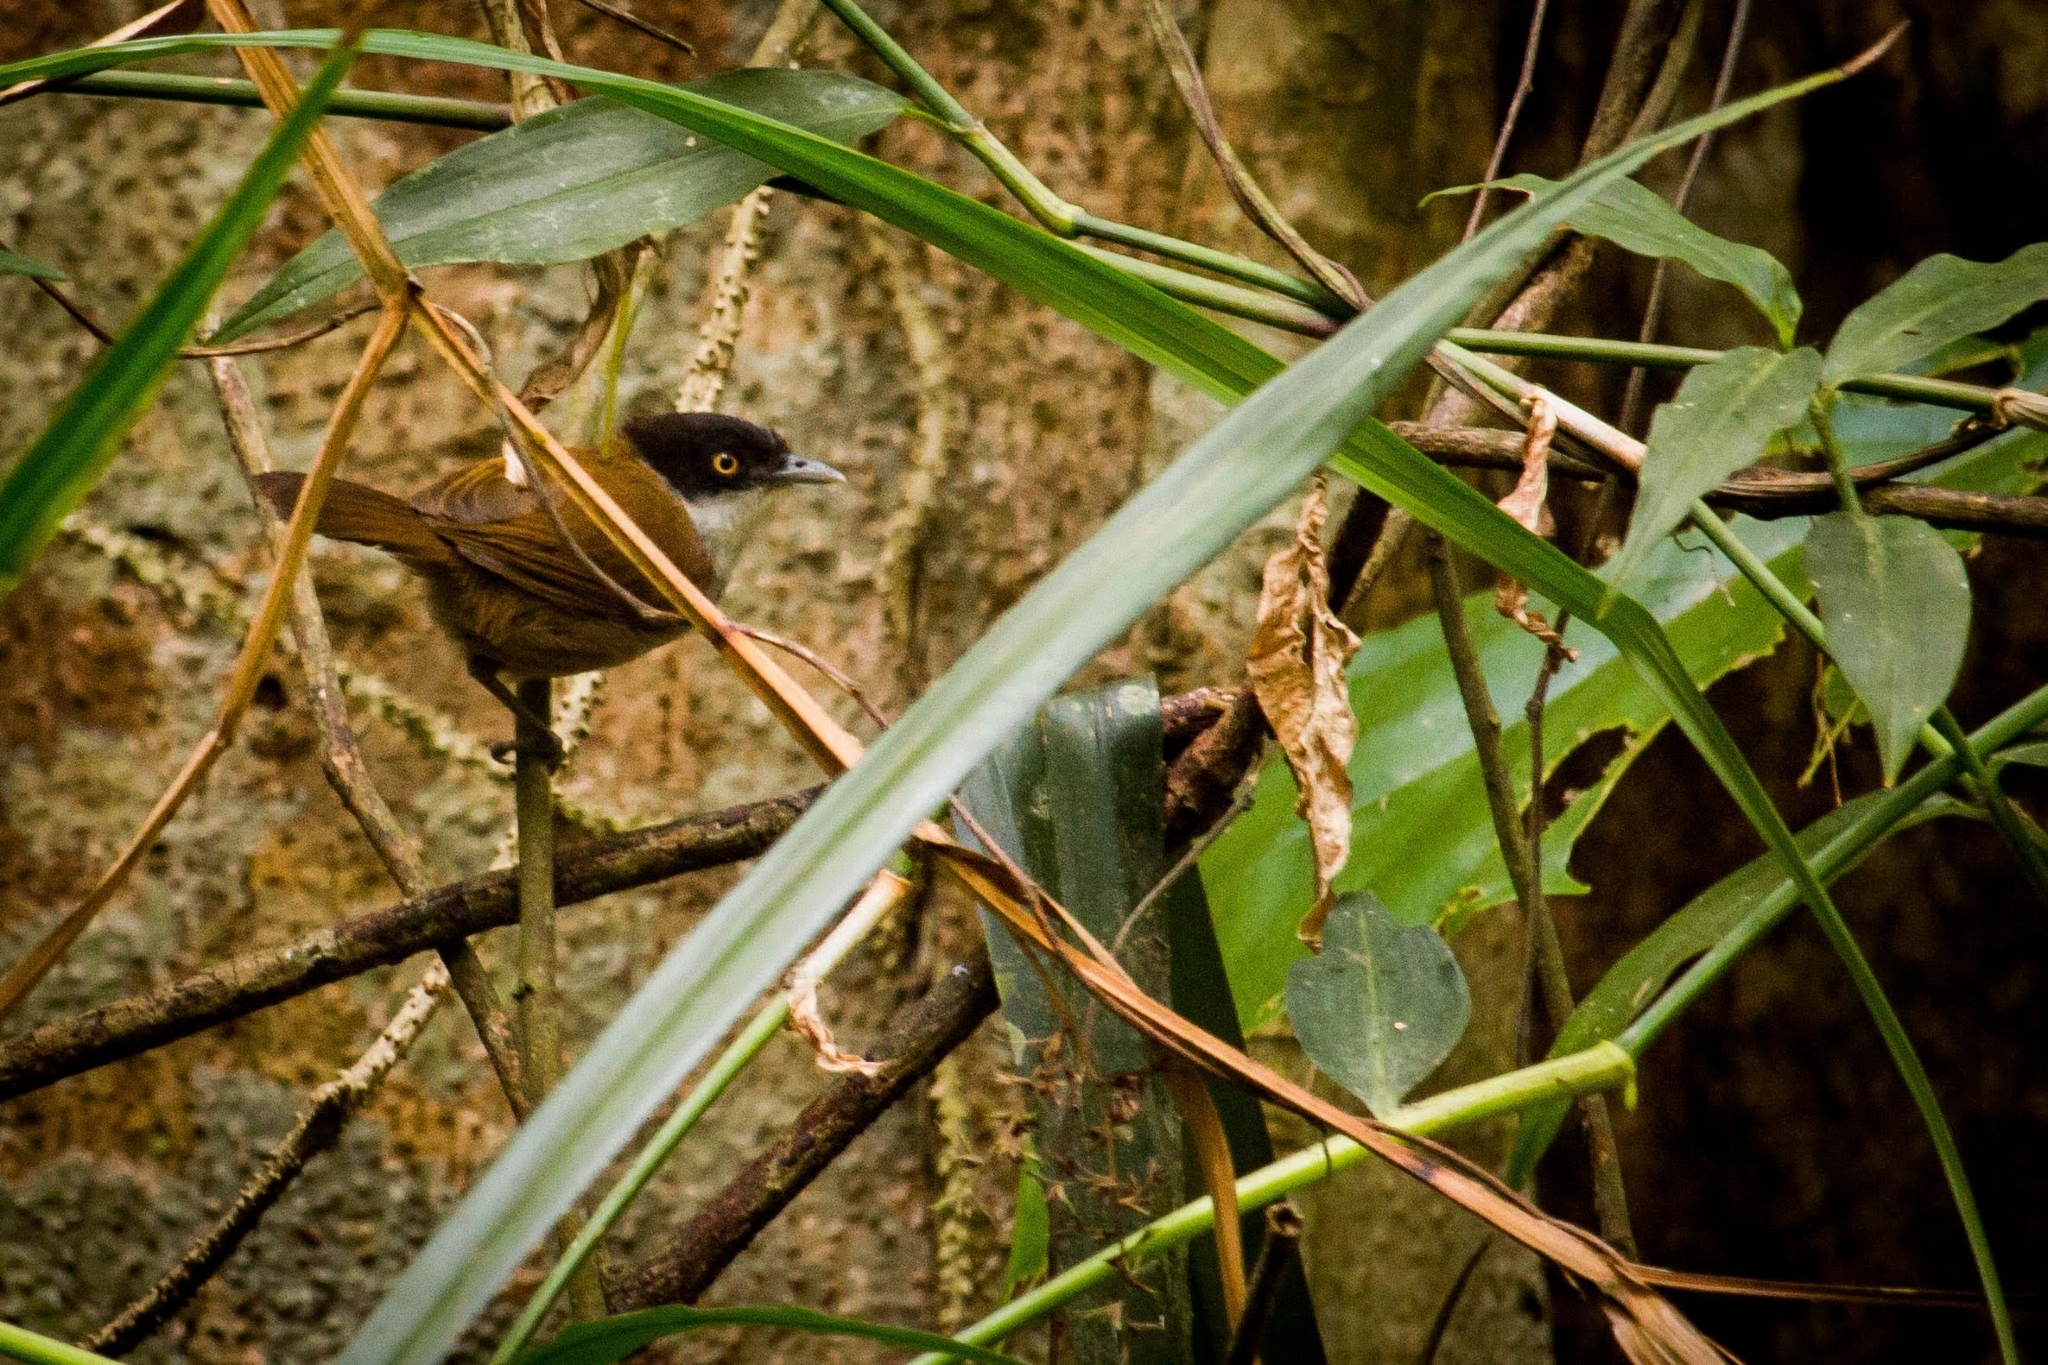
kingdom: Animalia
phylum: Chordata
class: Aves
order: Passeriformes
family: Timaliidae
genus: Rhopocichla
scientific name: Rhopocichla atriceps
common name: Dark-fronted babbler
